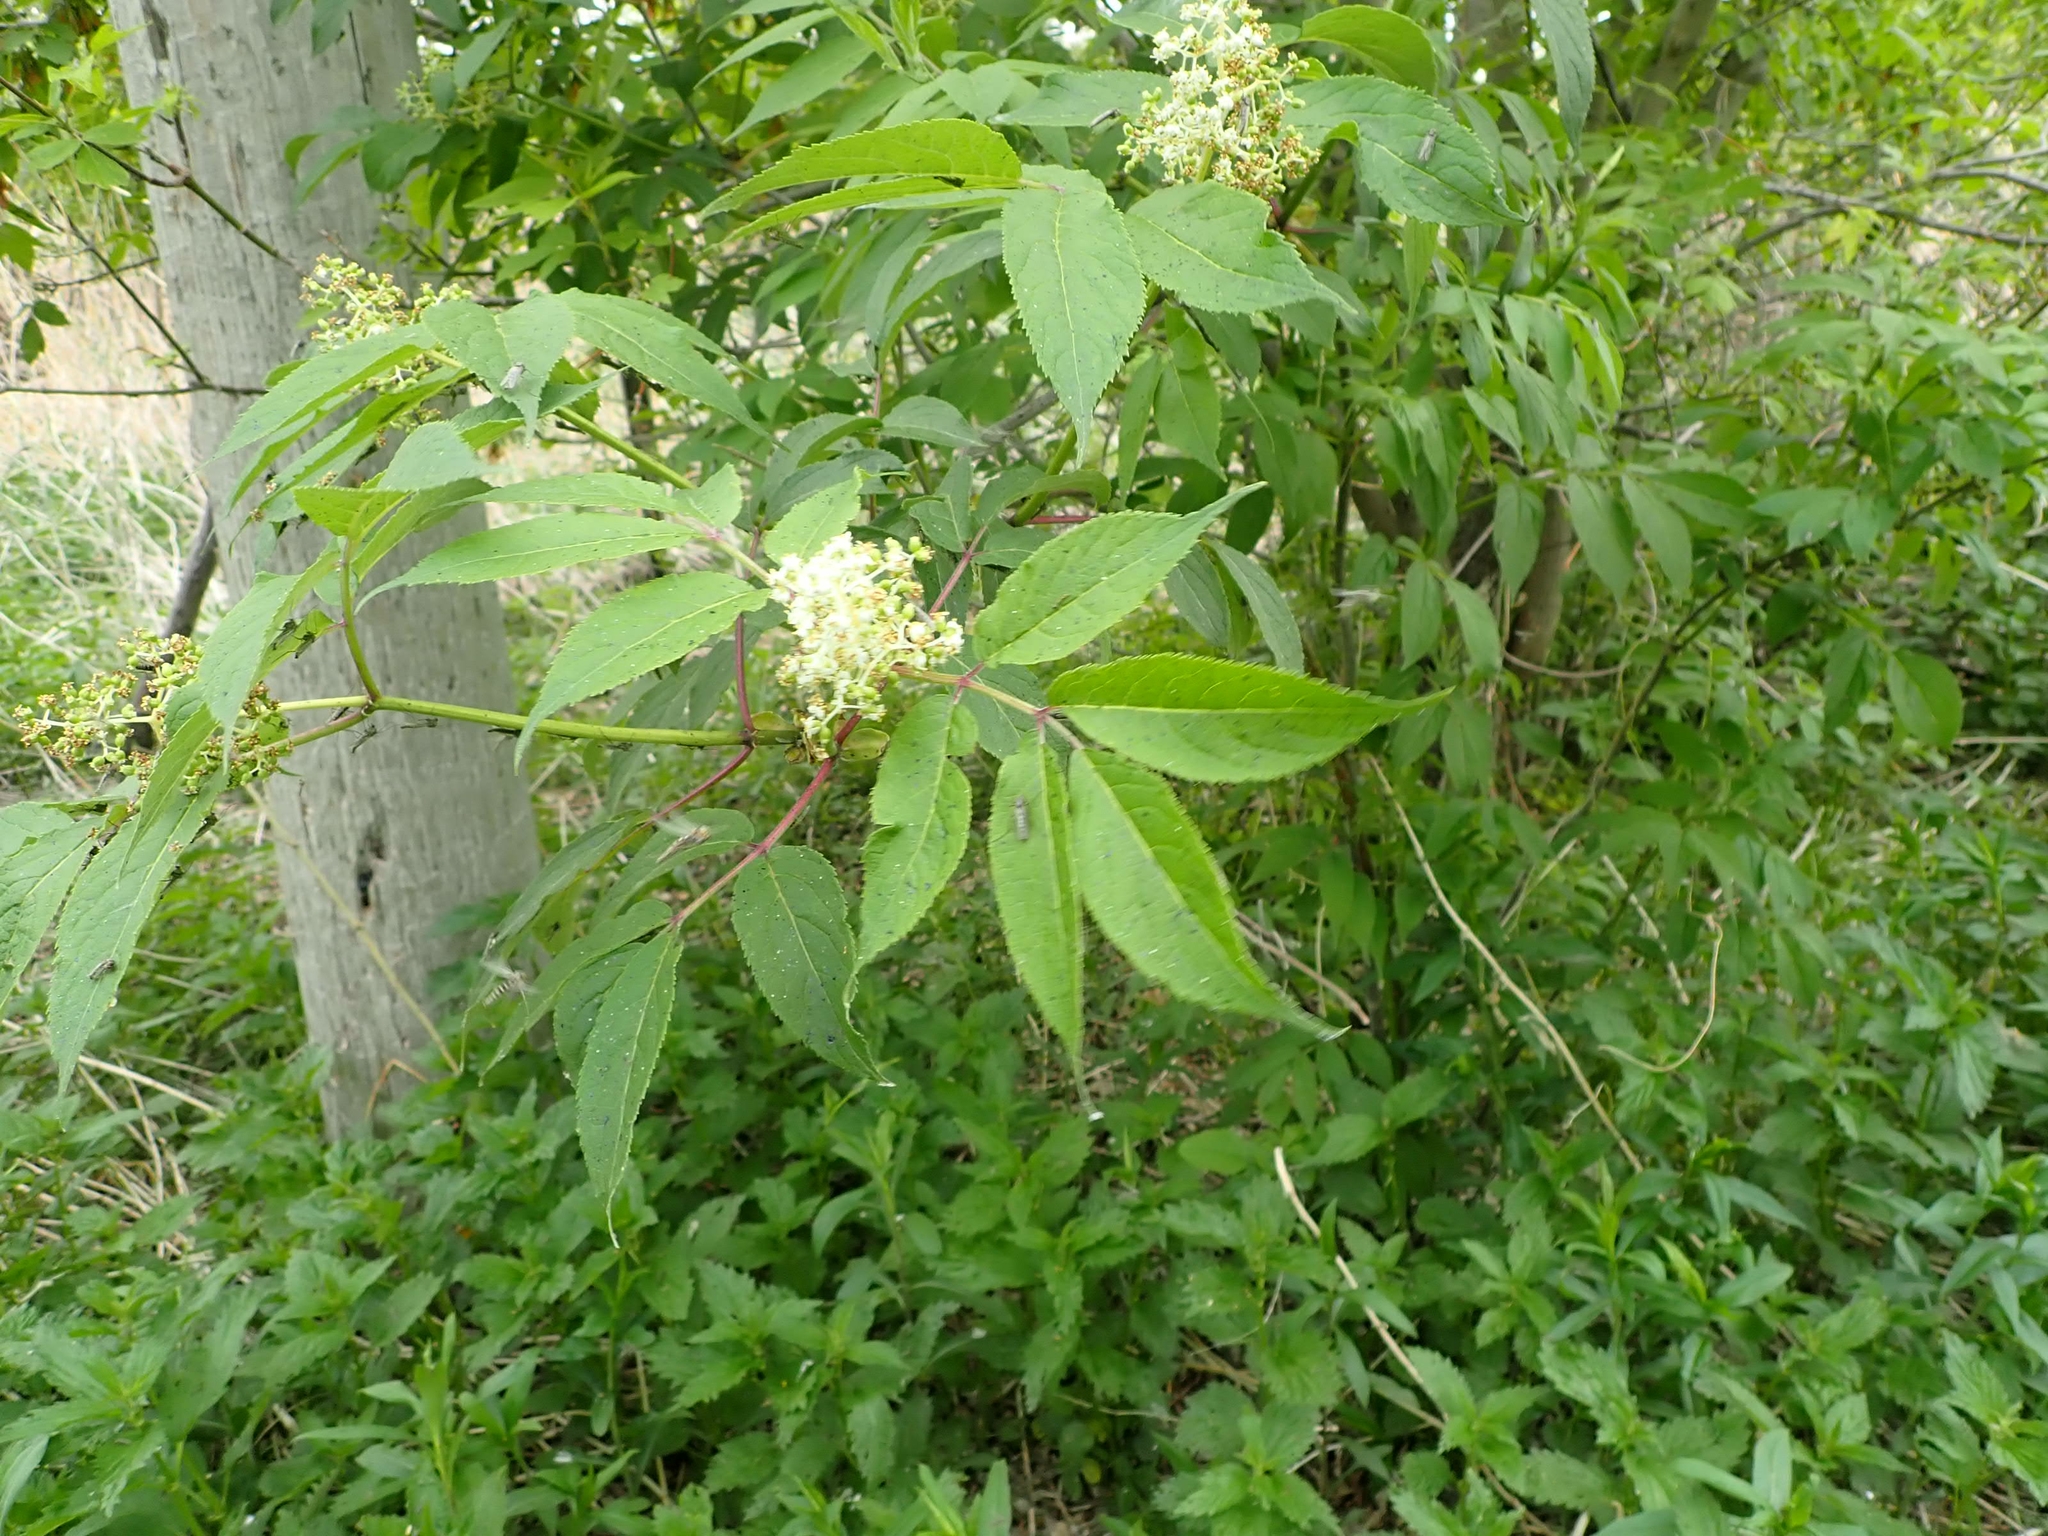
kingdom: Plantae
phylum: Tracheophyta
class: Magnoliopsida
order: Dipsacales
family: Viburnaceae
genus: Sambucus
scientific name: Sambucus racemosa
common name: Red-berried elder
